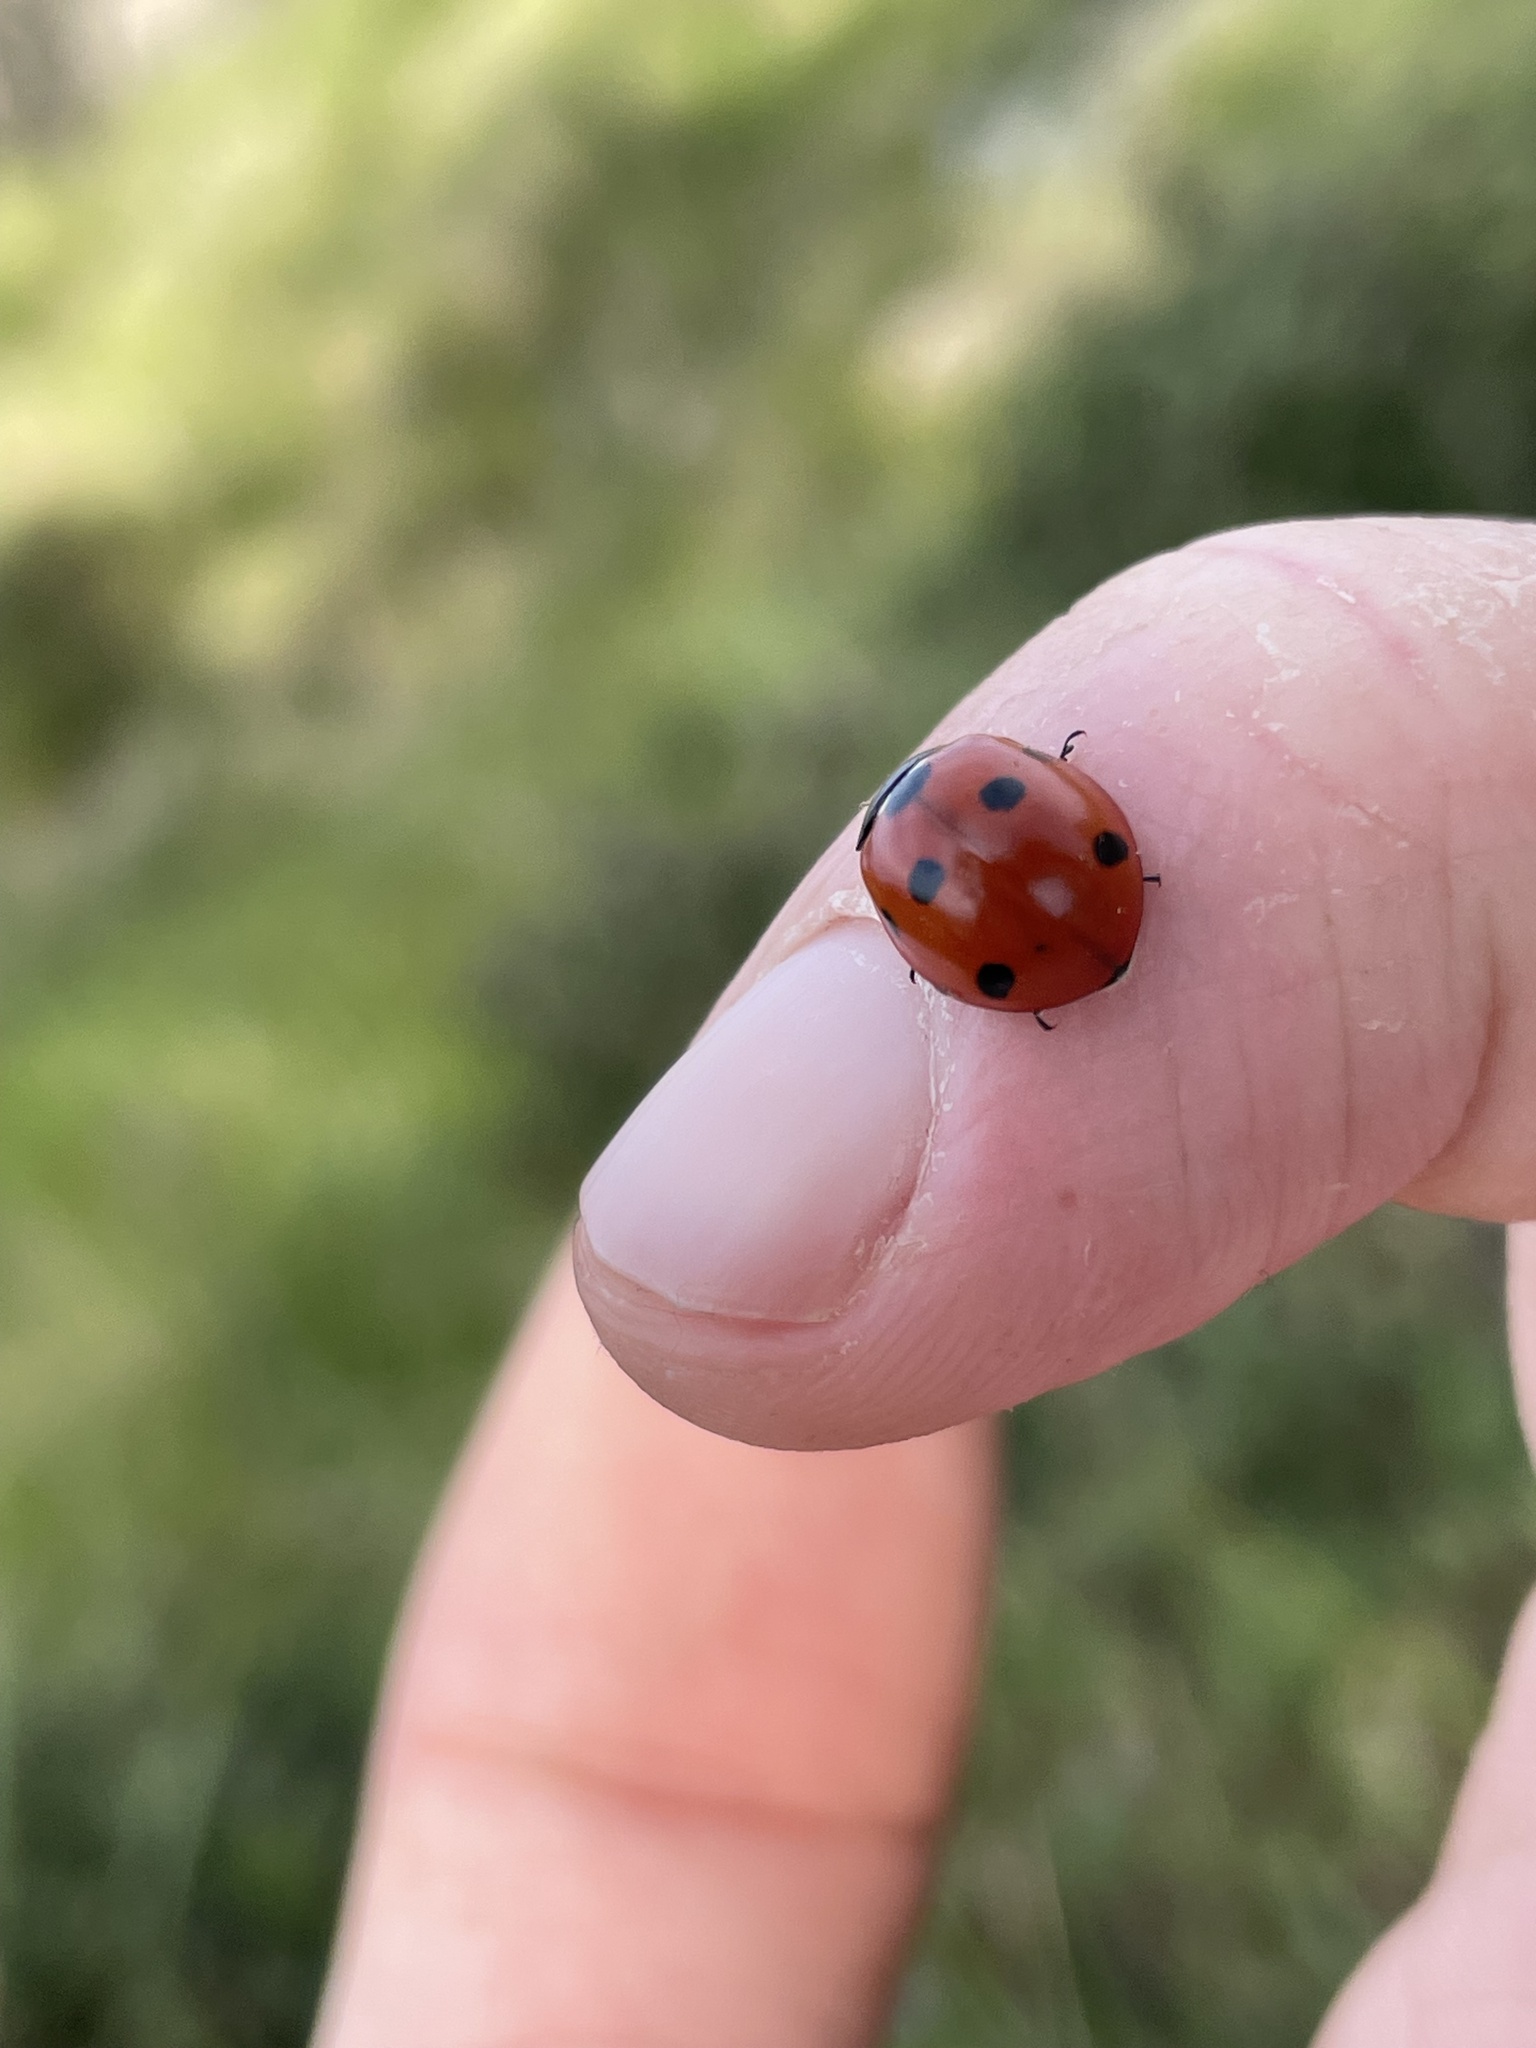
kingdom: Animalia
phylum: Arthropoda
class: Insecta
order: Coleoptera
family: Coccinellidae
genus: Coccinella
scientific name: Coccinella septempunctata
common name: Sevenspotted lady beetle
